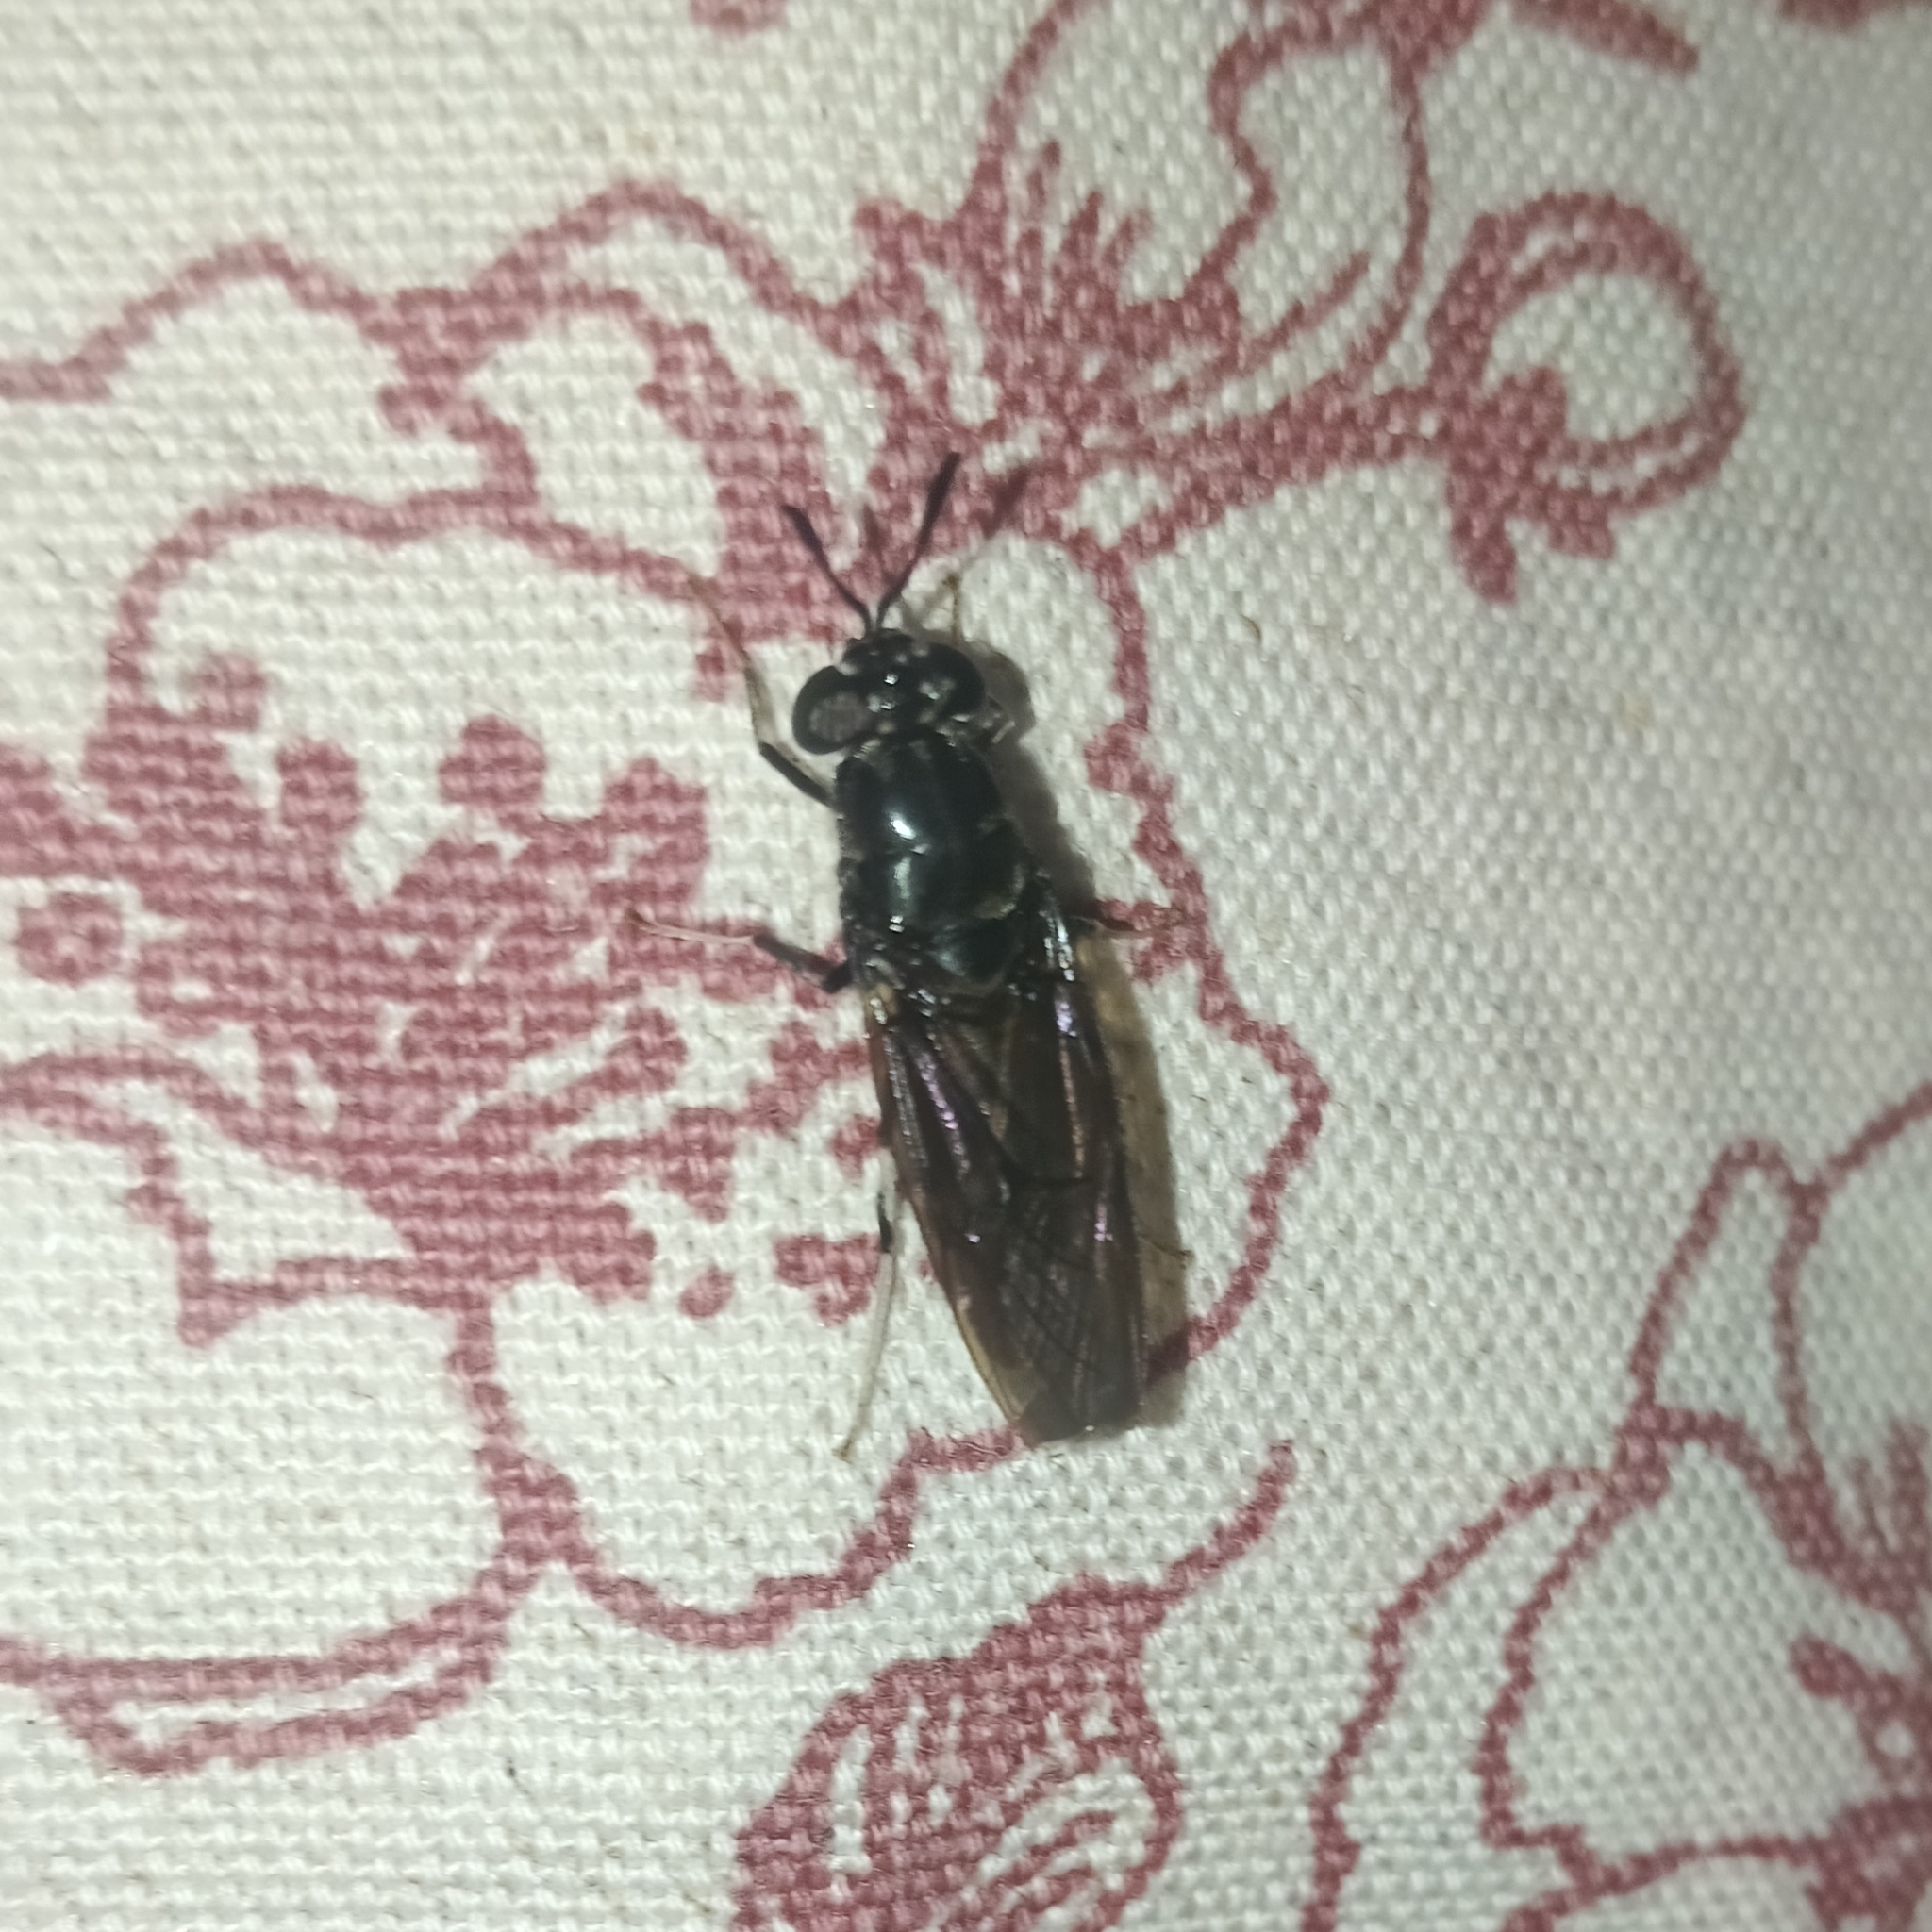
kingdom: Animalia
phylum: Arthropoda
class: Insecta
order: Diptera
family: Stratiomyidae
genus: Hermetia
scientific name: Hermetia illucens
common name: Black soldier fly
